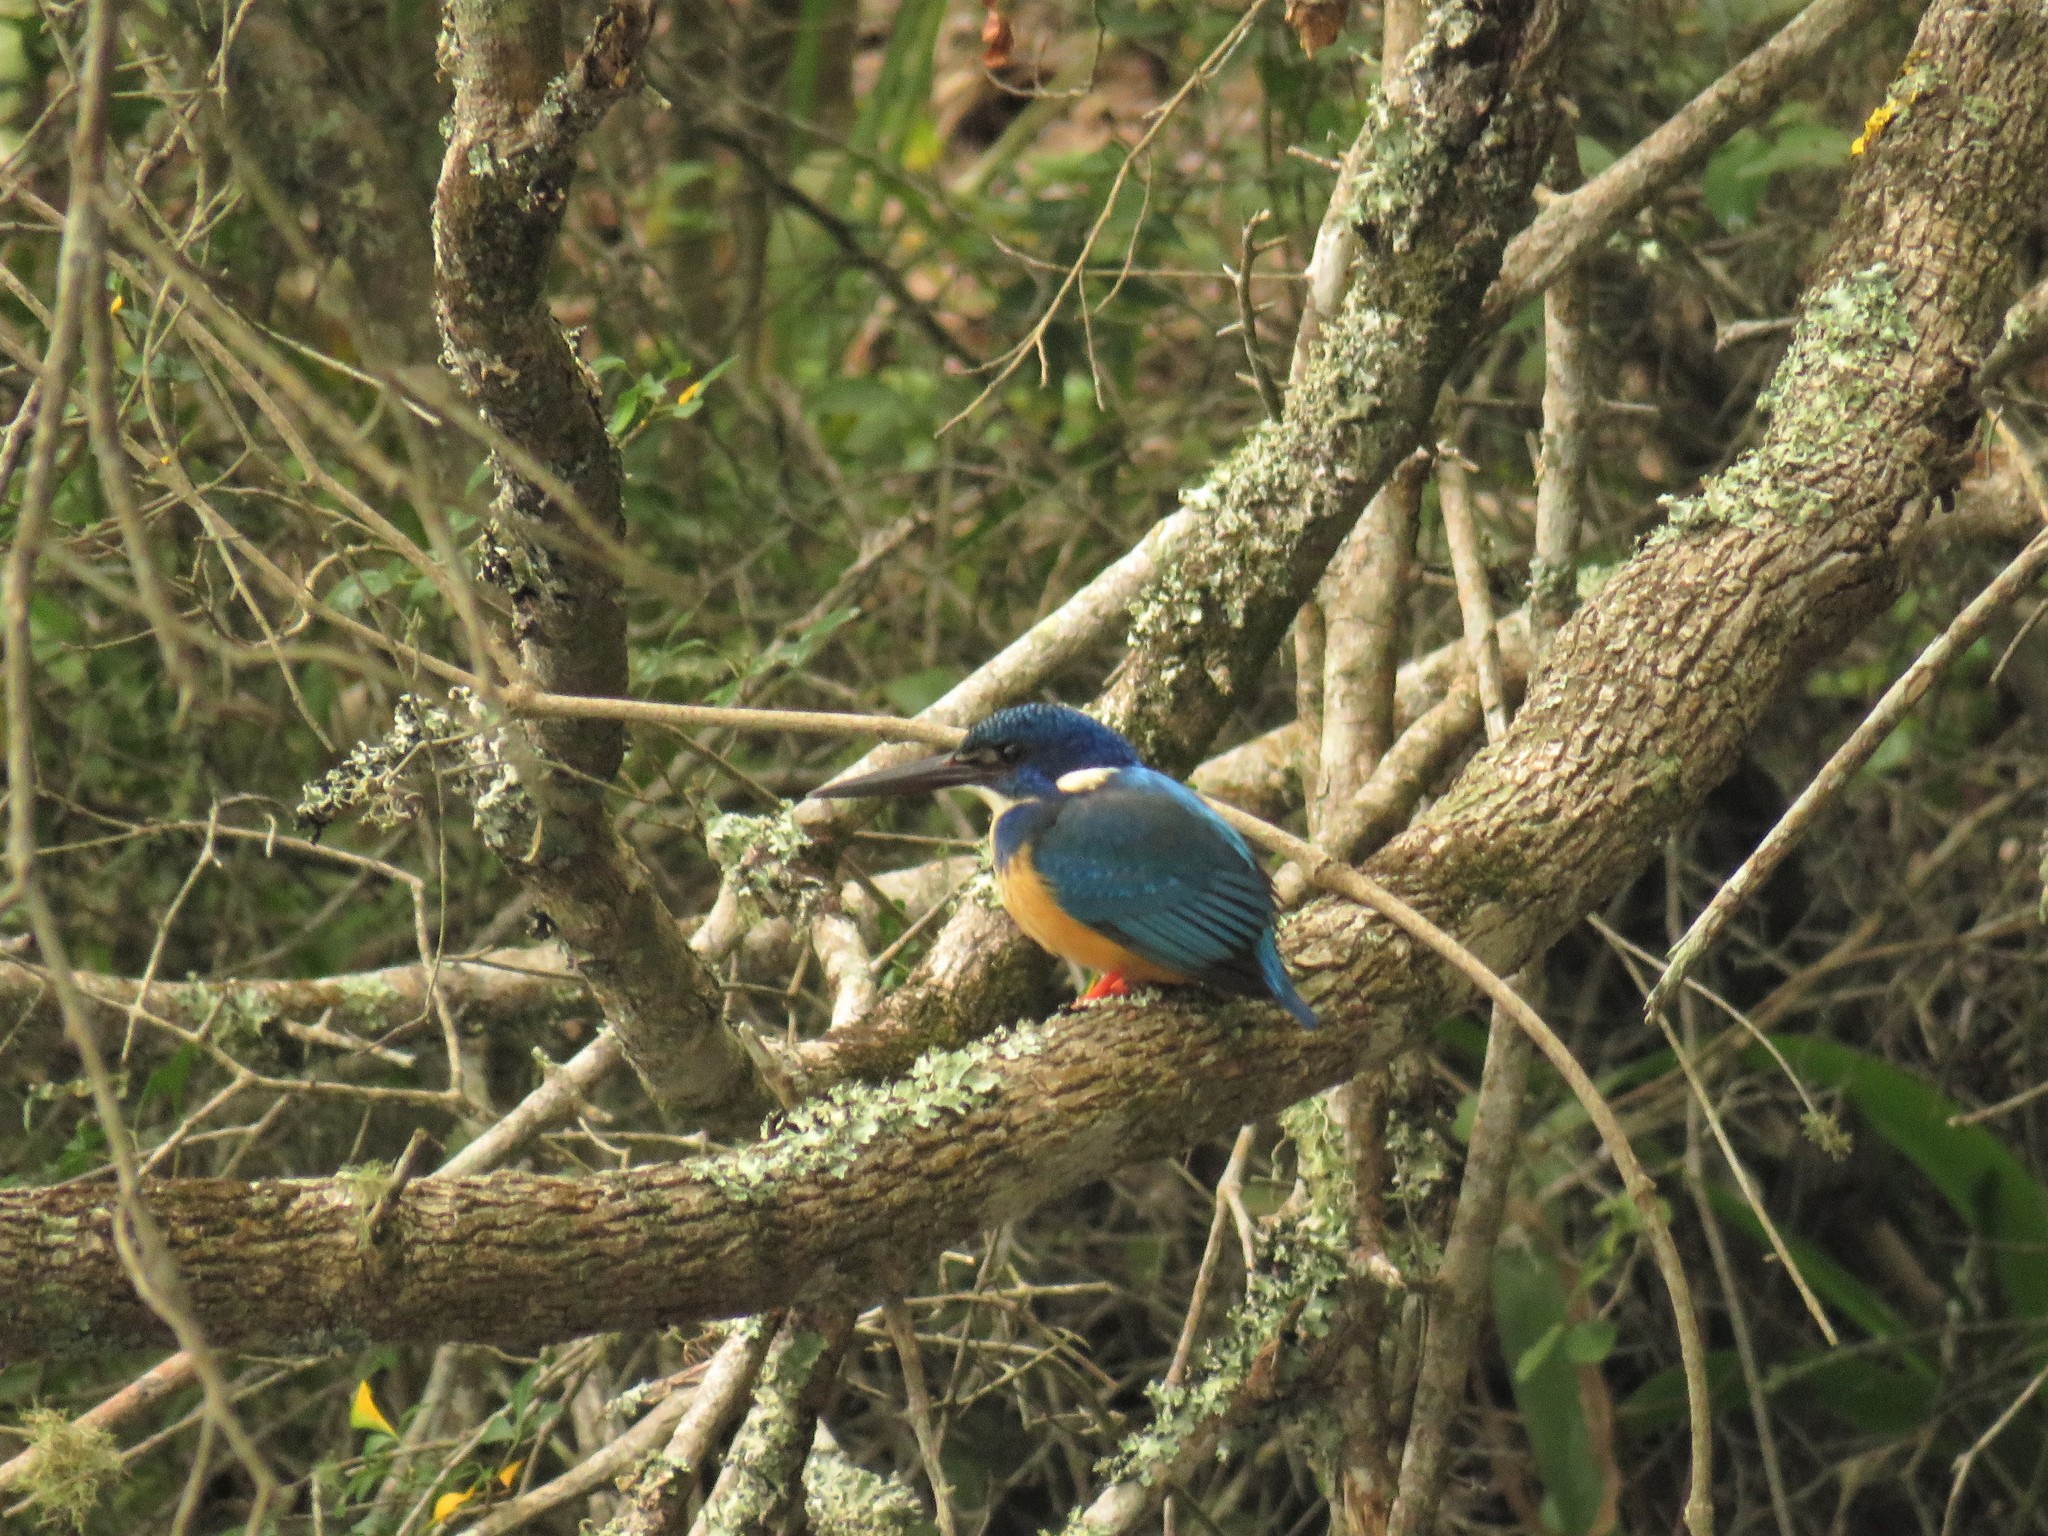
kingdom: Animalia
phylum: Chordata
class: Aves
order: Coraciiformes
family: Alcedinidae
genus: Alcedo
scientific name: Alcedo semitorquata
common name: Half-collared kingfisher
